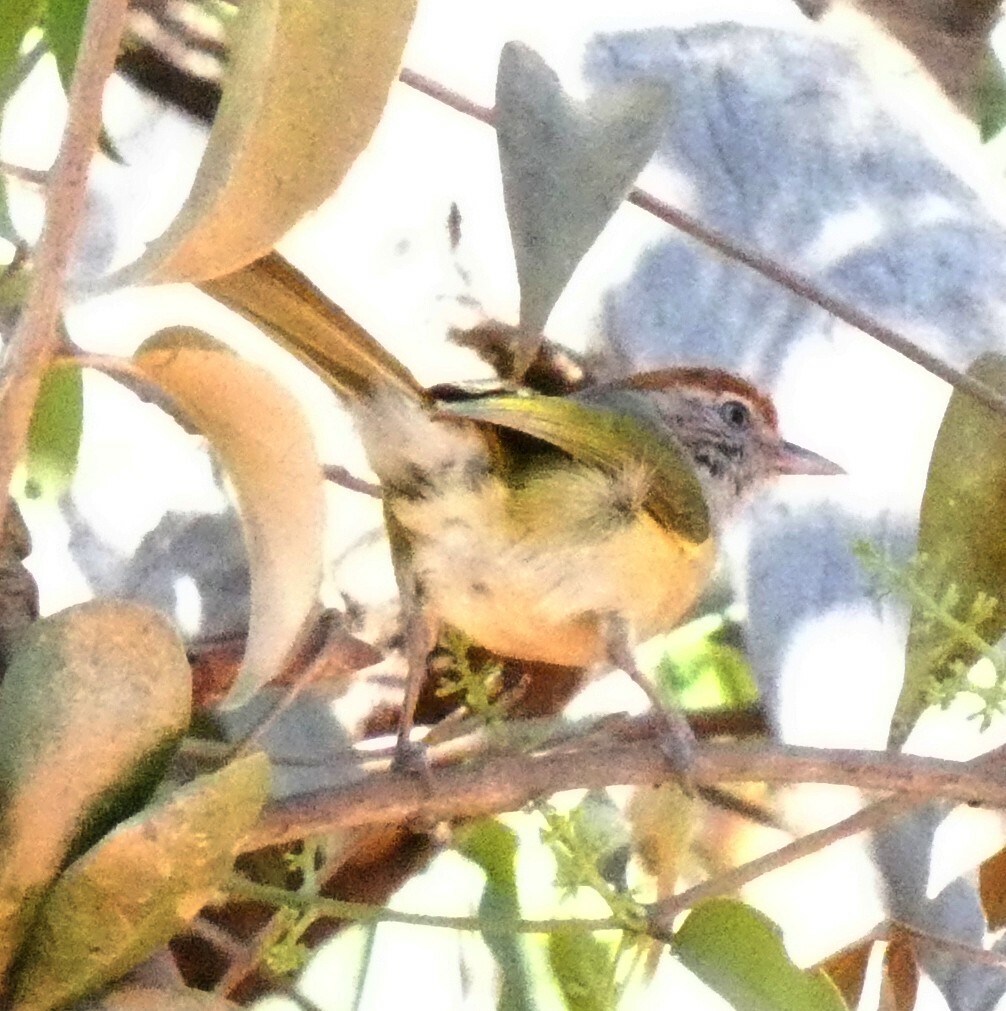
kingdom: Animalia
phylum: Chordata
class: Aves
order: Passeriformes
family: Vireonidae
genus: Hylophilus
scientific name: Hylophilus amaurocephalus
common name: Grey-eyed greenlet
